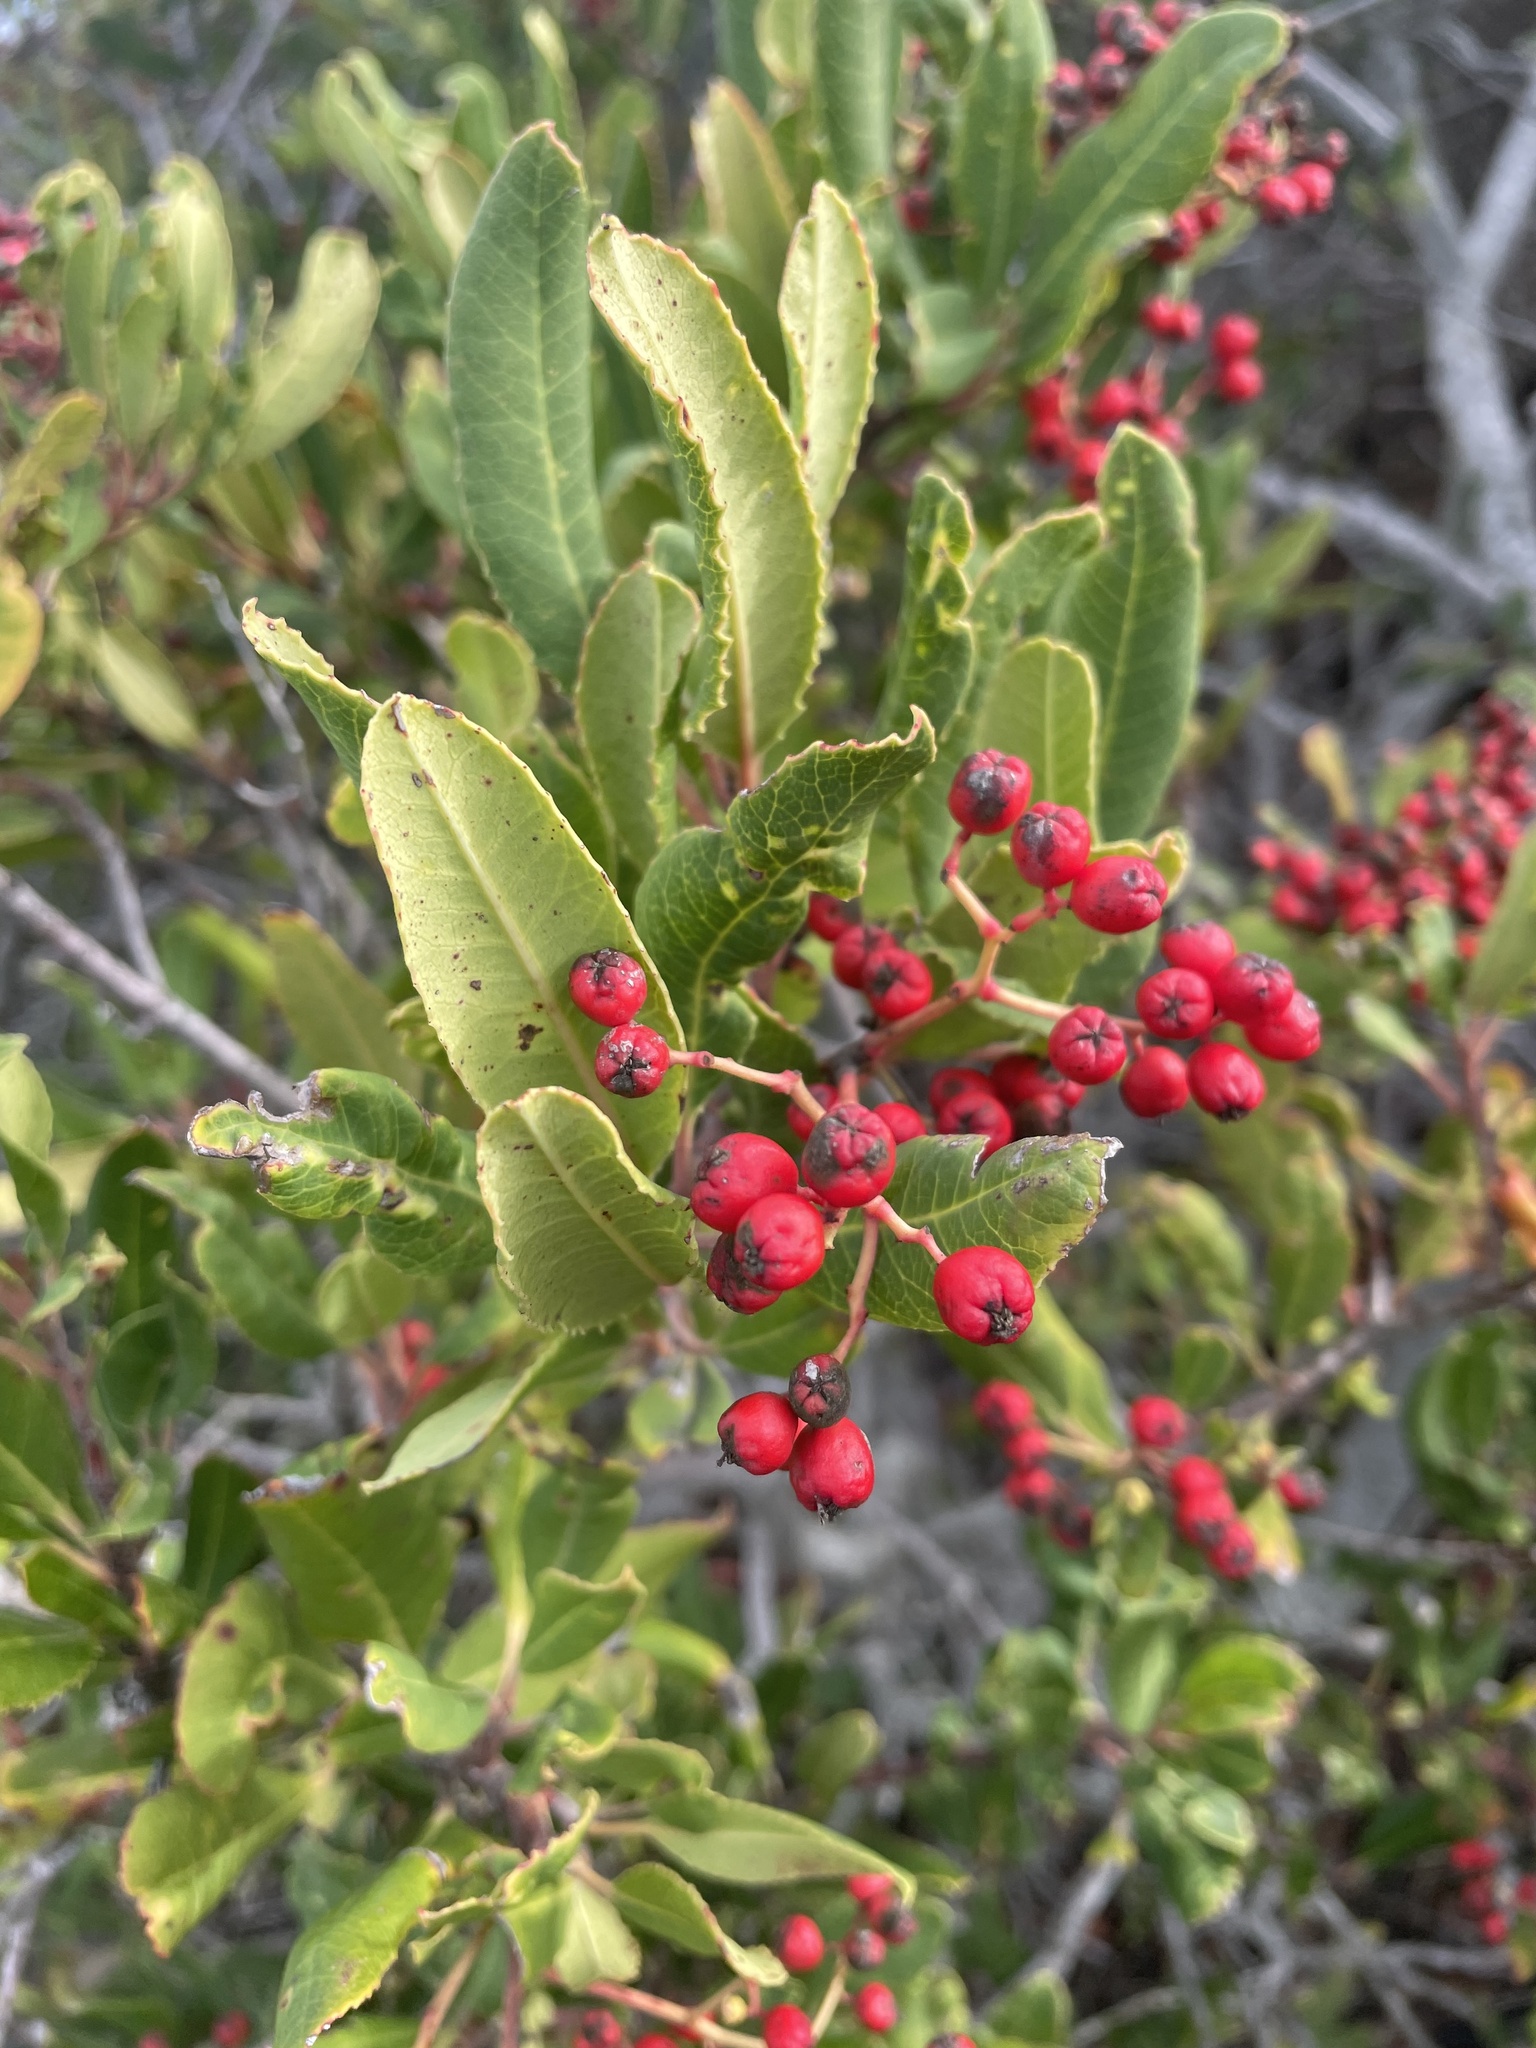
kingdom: Plantae
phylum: Tracheophyta
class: Magnoliopsida
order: Rosales
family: Rosaceae
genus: Heteromeles
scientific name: Heteromeles arbutifolia
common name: California-holly
